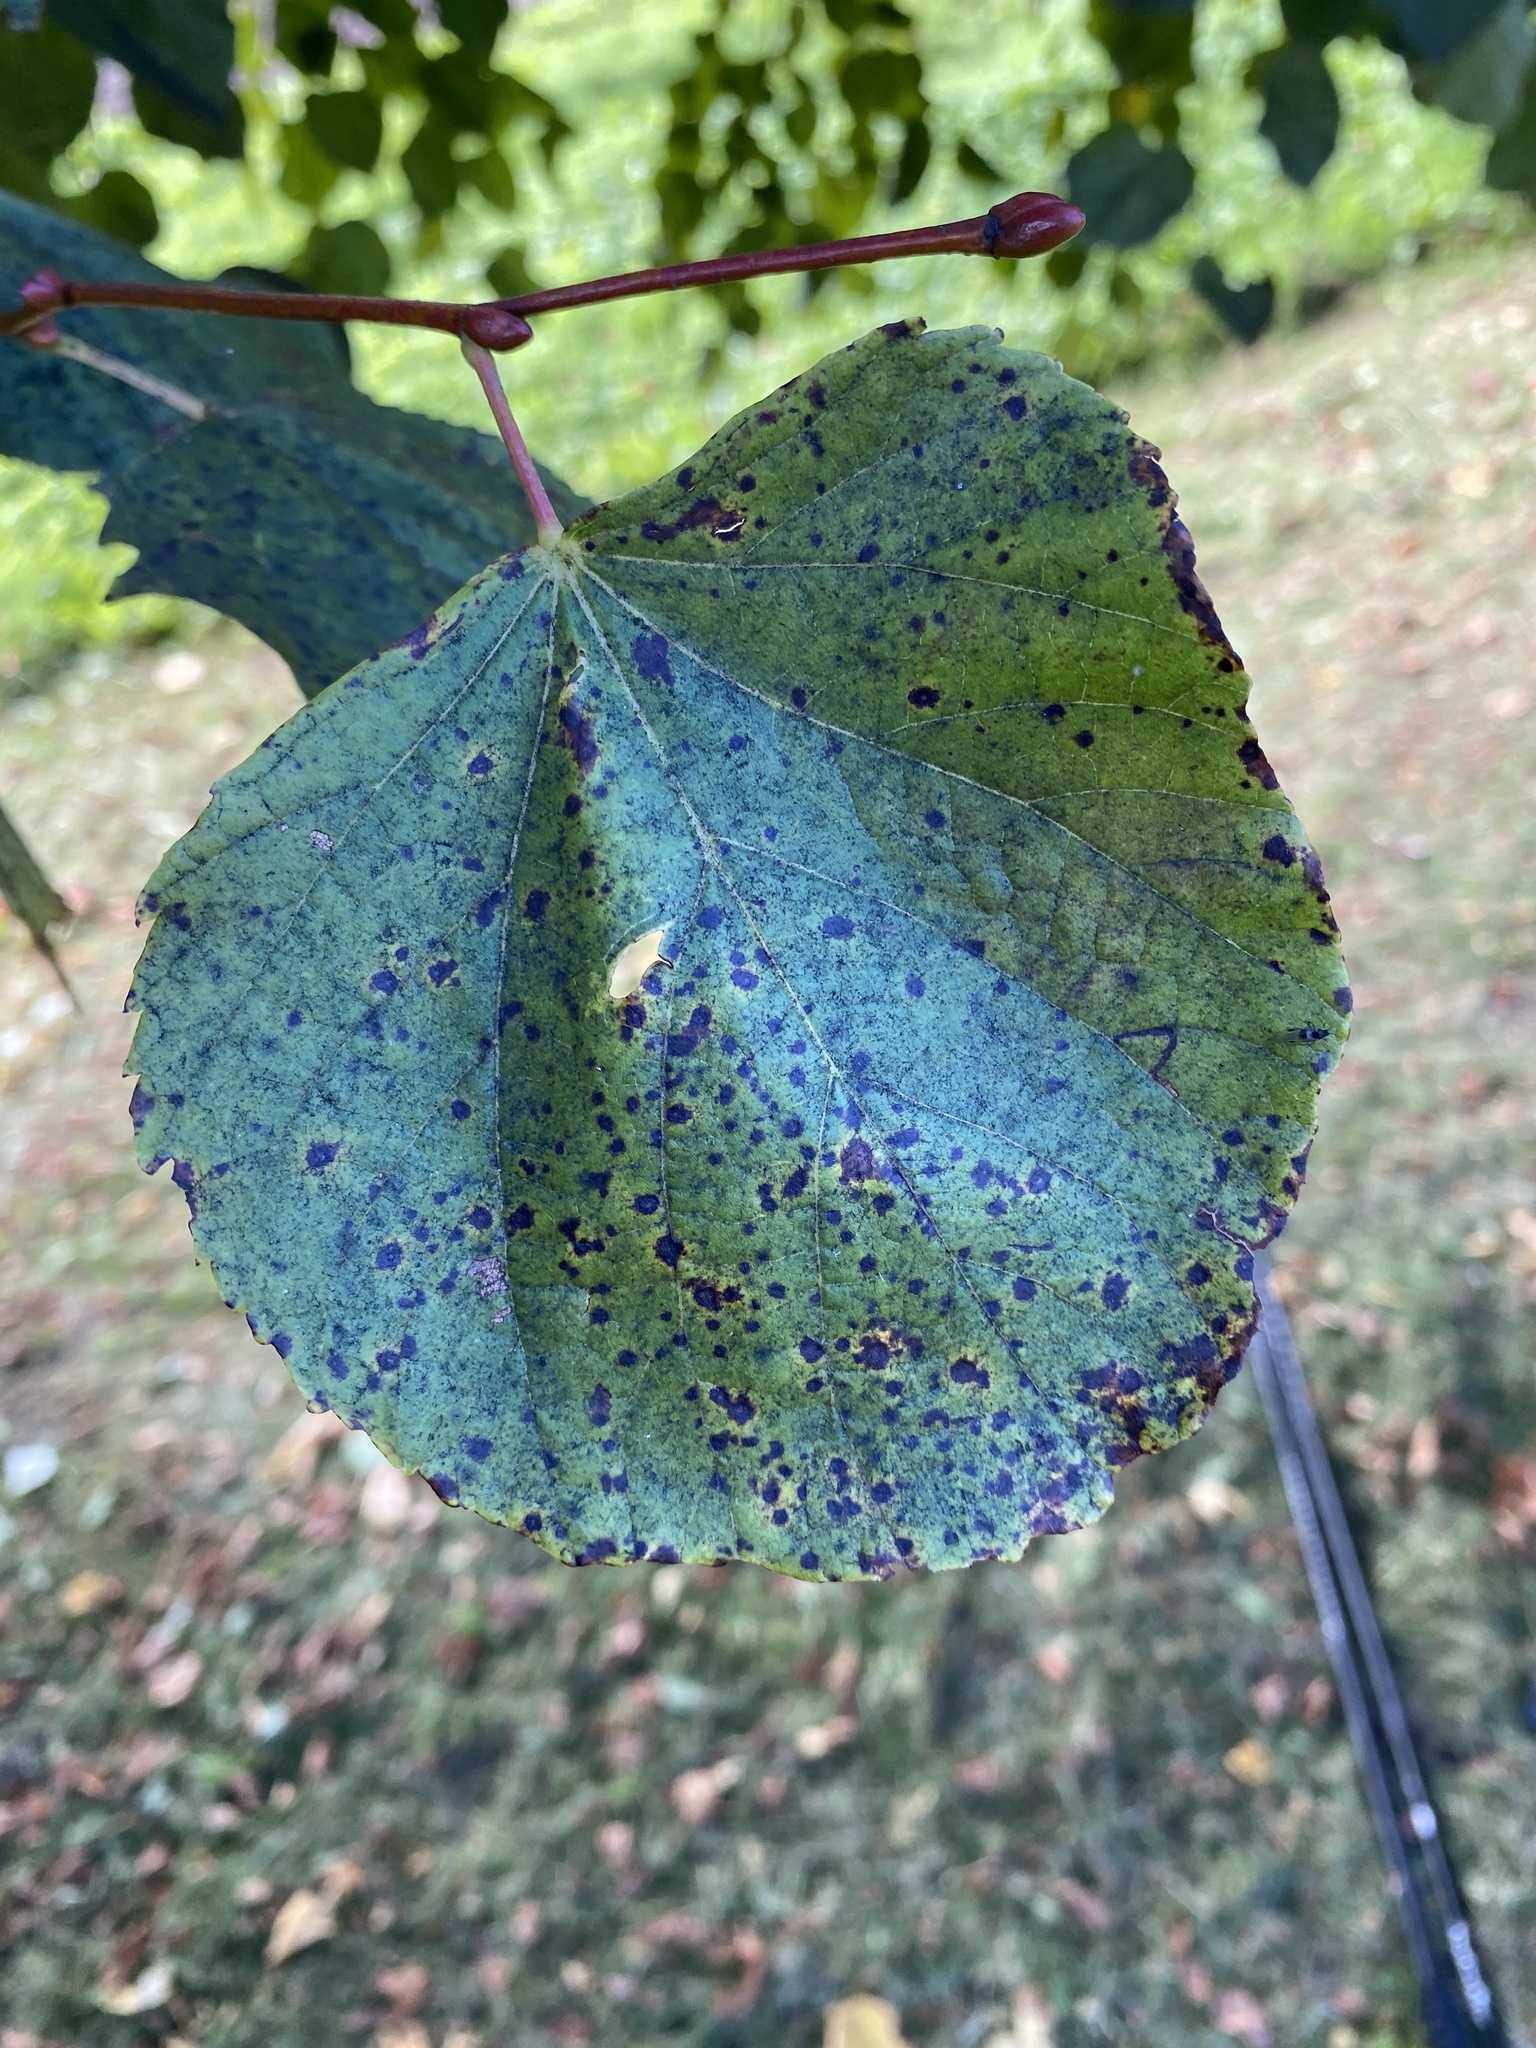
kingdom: Fungi
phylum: Ascomycota
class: Dothideomycetes
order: Mycosphaerellales
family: Mycosphaerellaceae
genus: Paracercosporidium
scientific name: Paracercosporidium microsorum
